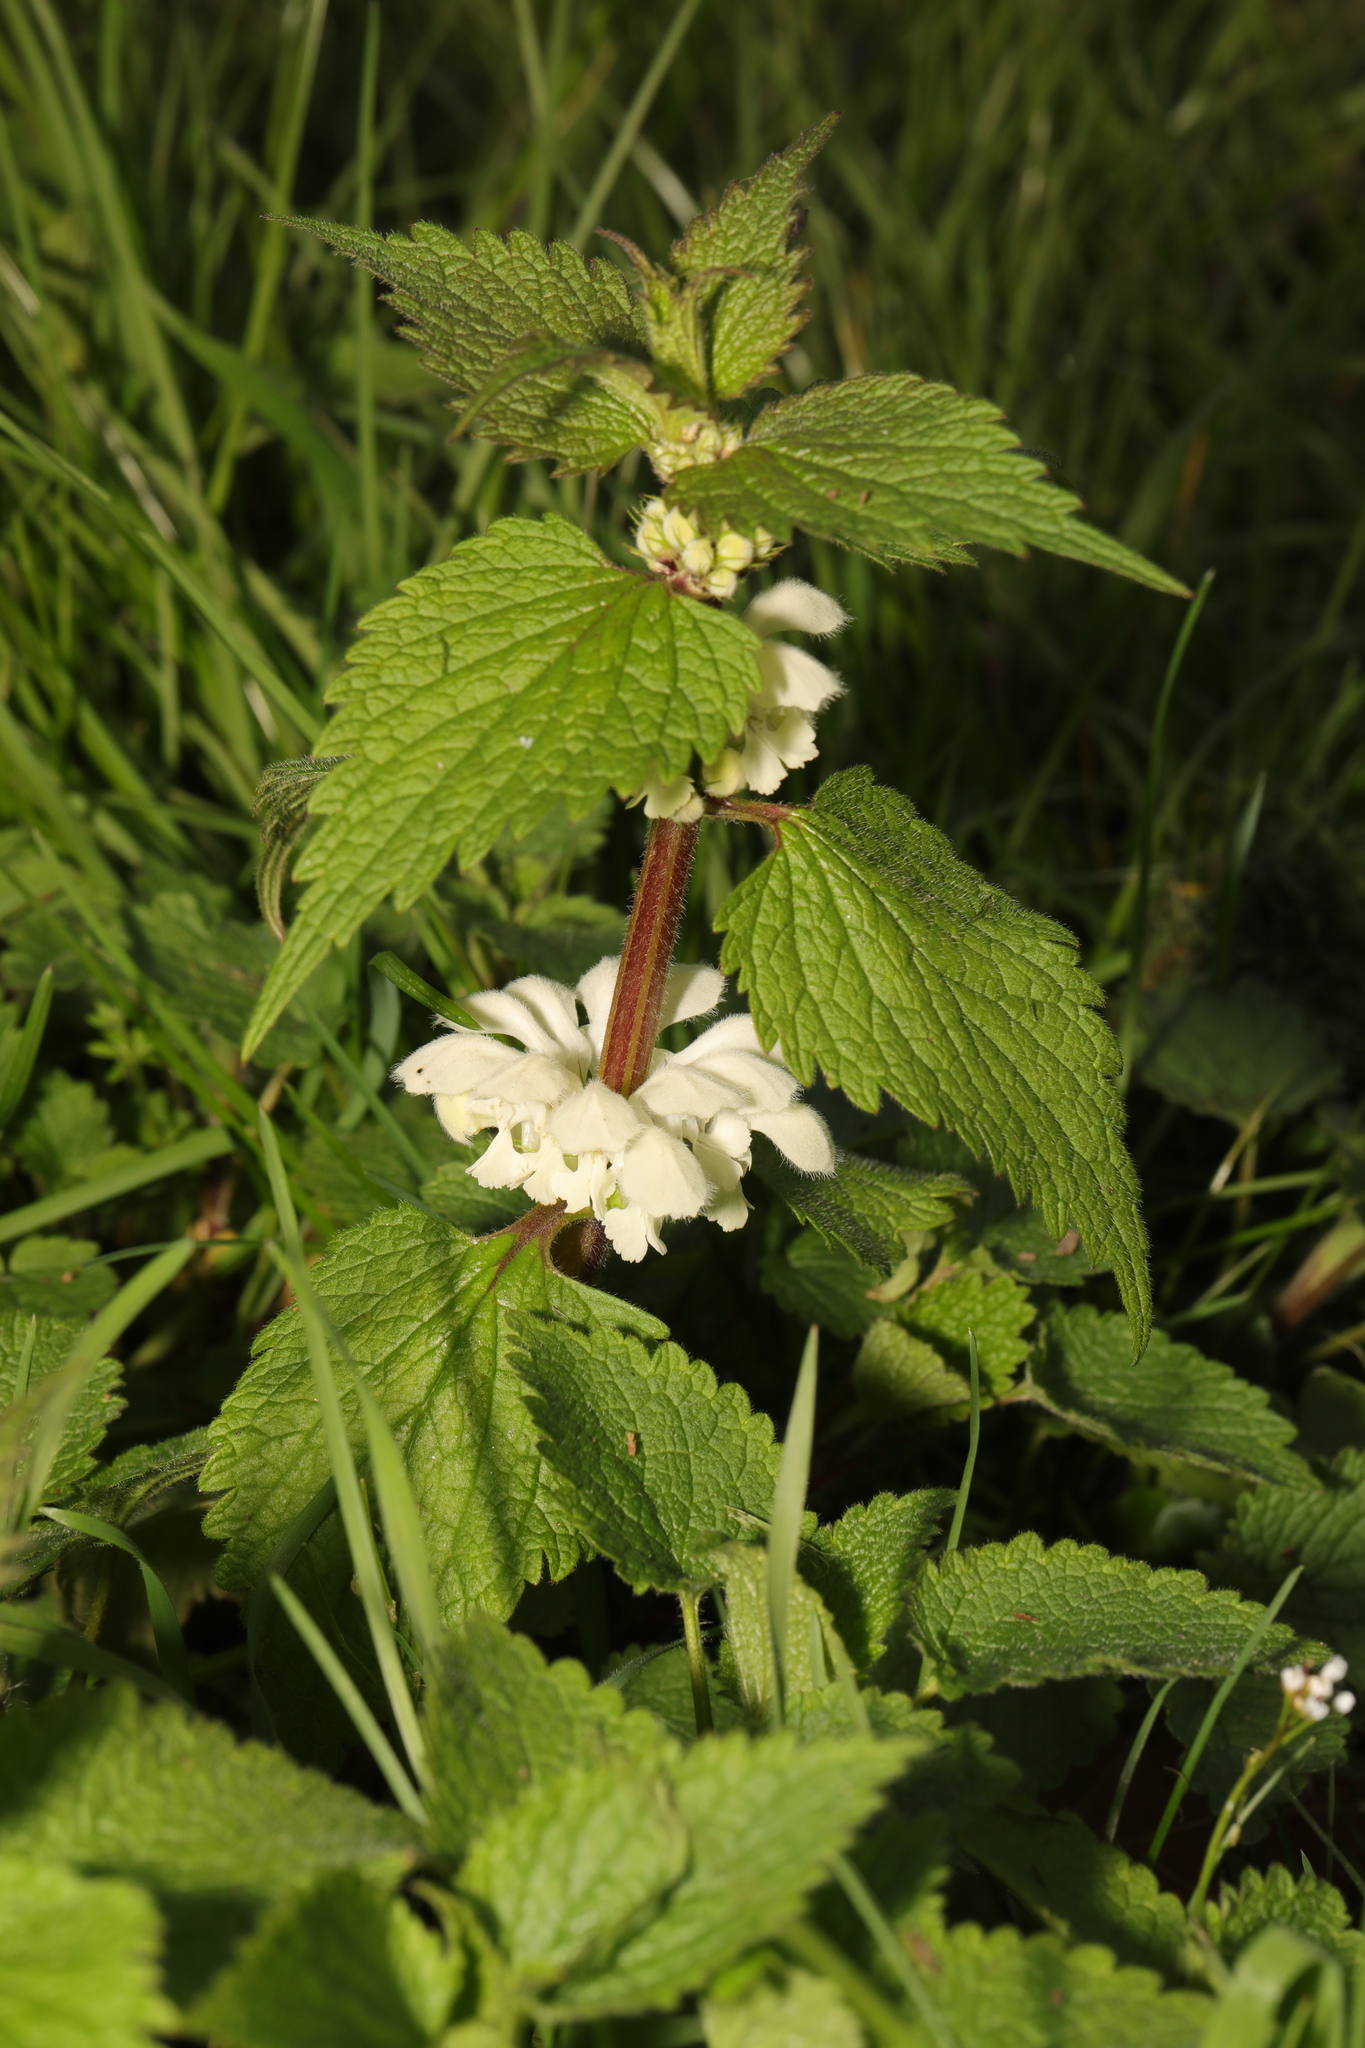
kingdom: Plantae
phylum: Tracheophyta
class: Magnoliopsida
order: Lamiales
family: Lamiaceae
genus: Lamium
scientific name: Lamium album
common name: White dead-nettle
